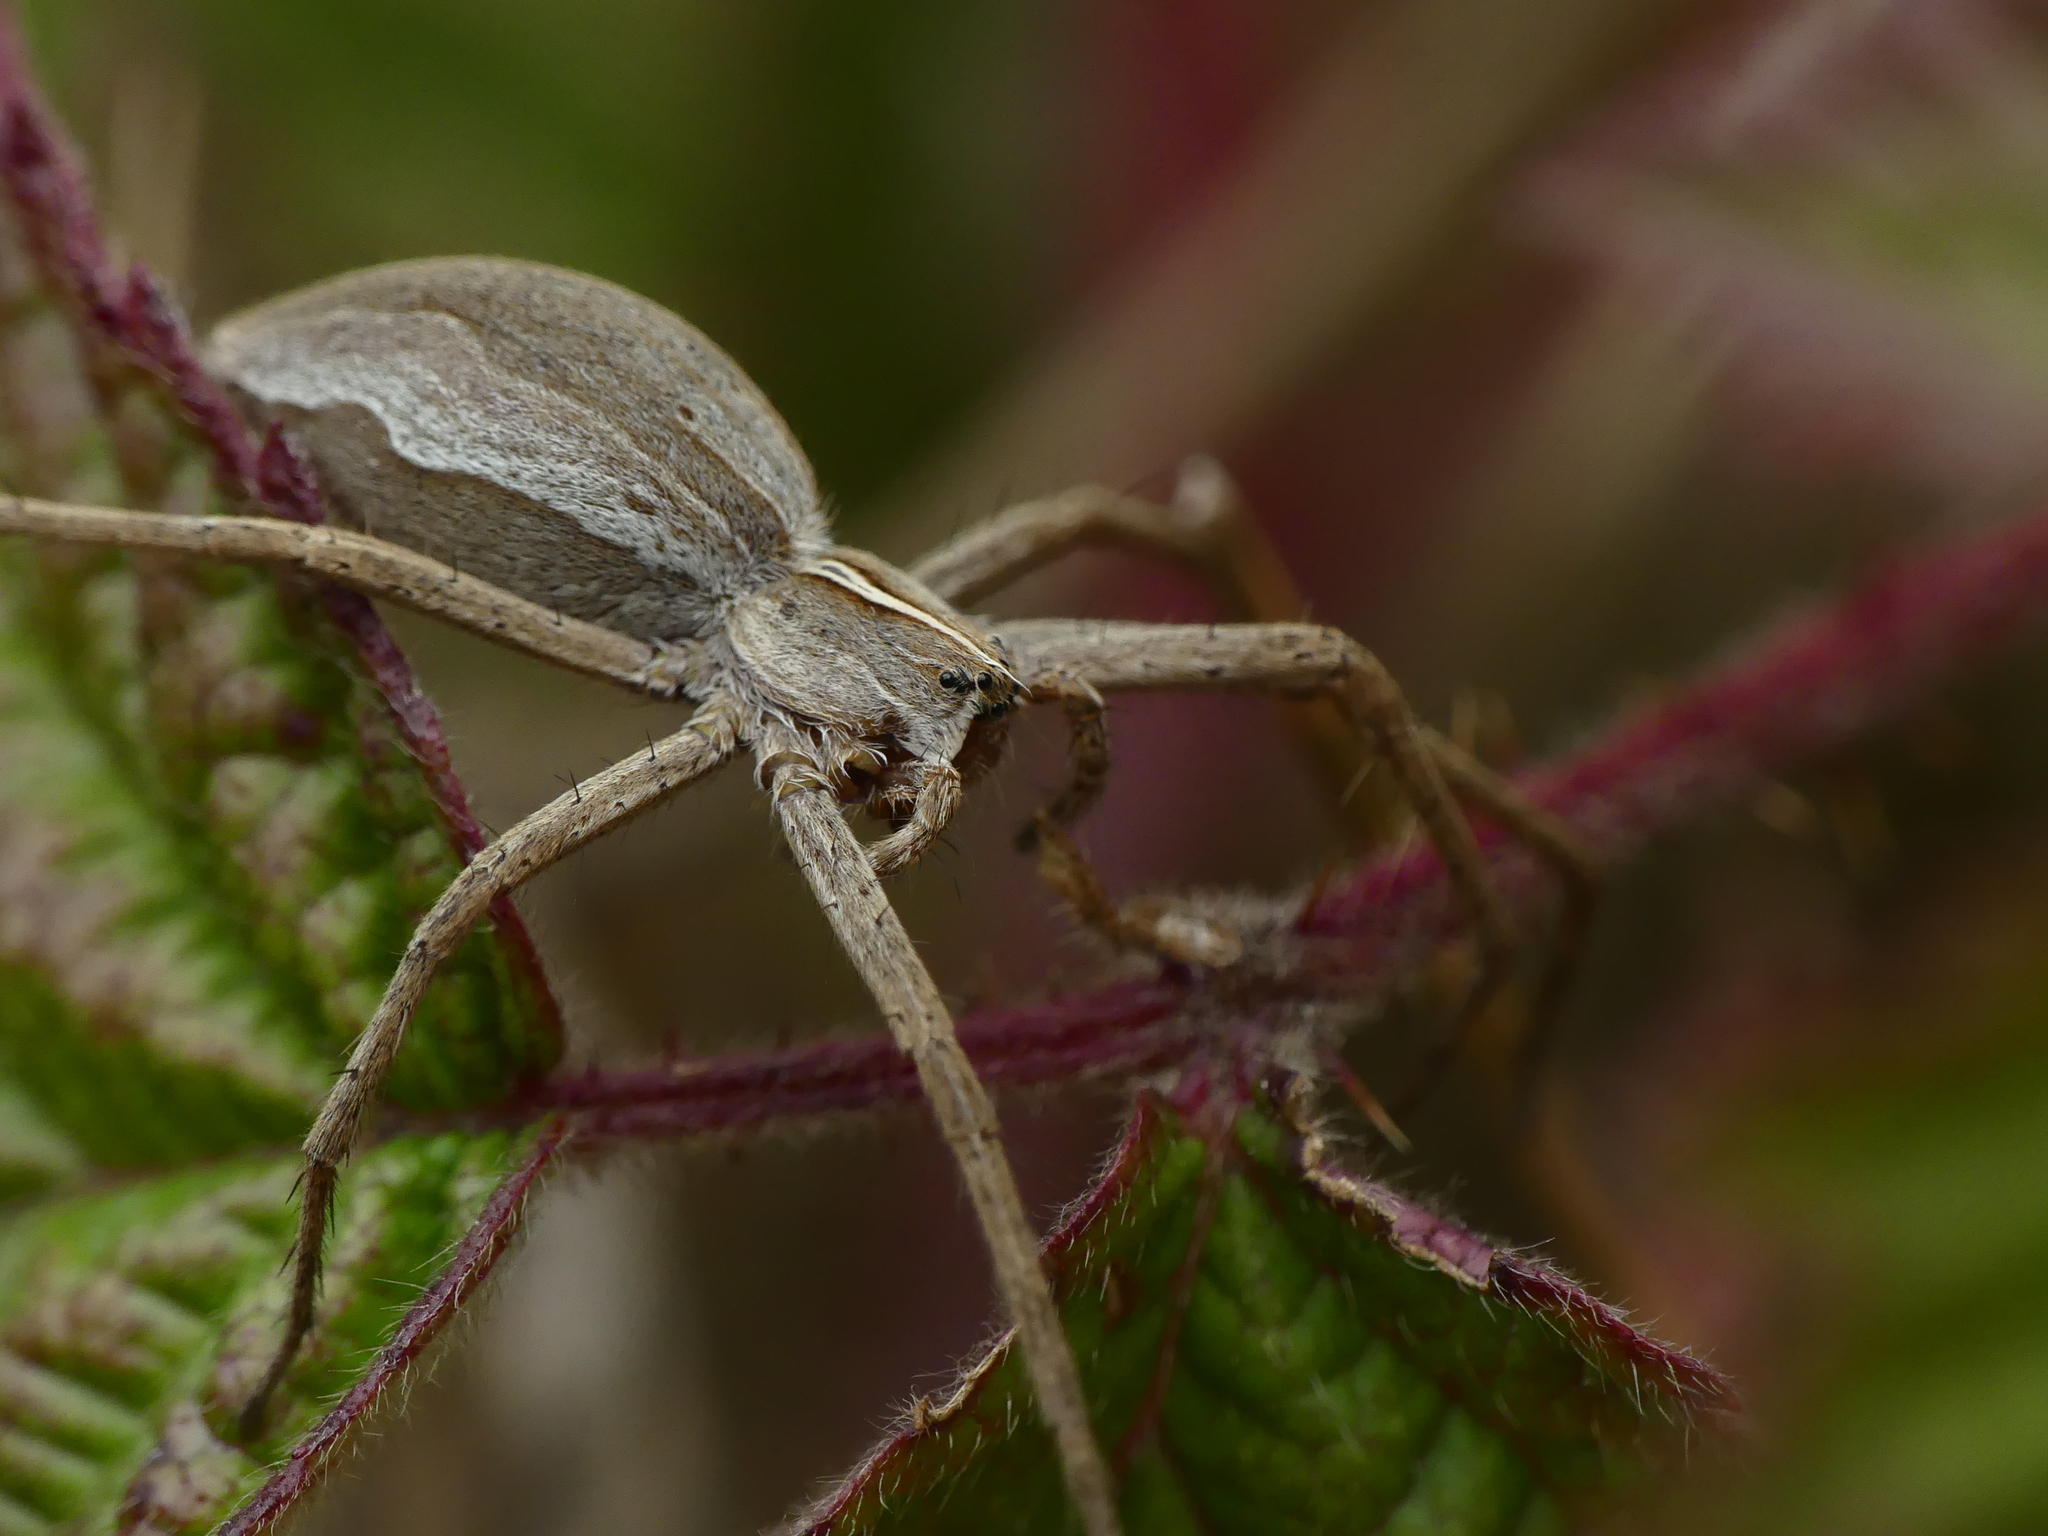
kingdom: Animalia
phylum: Arthropoda
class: Arachnida
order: Araneae
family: Pisauridae
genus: Pisaura
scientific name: Pisaura mirabilis
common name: Tent spider
